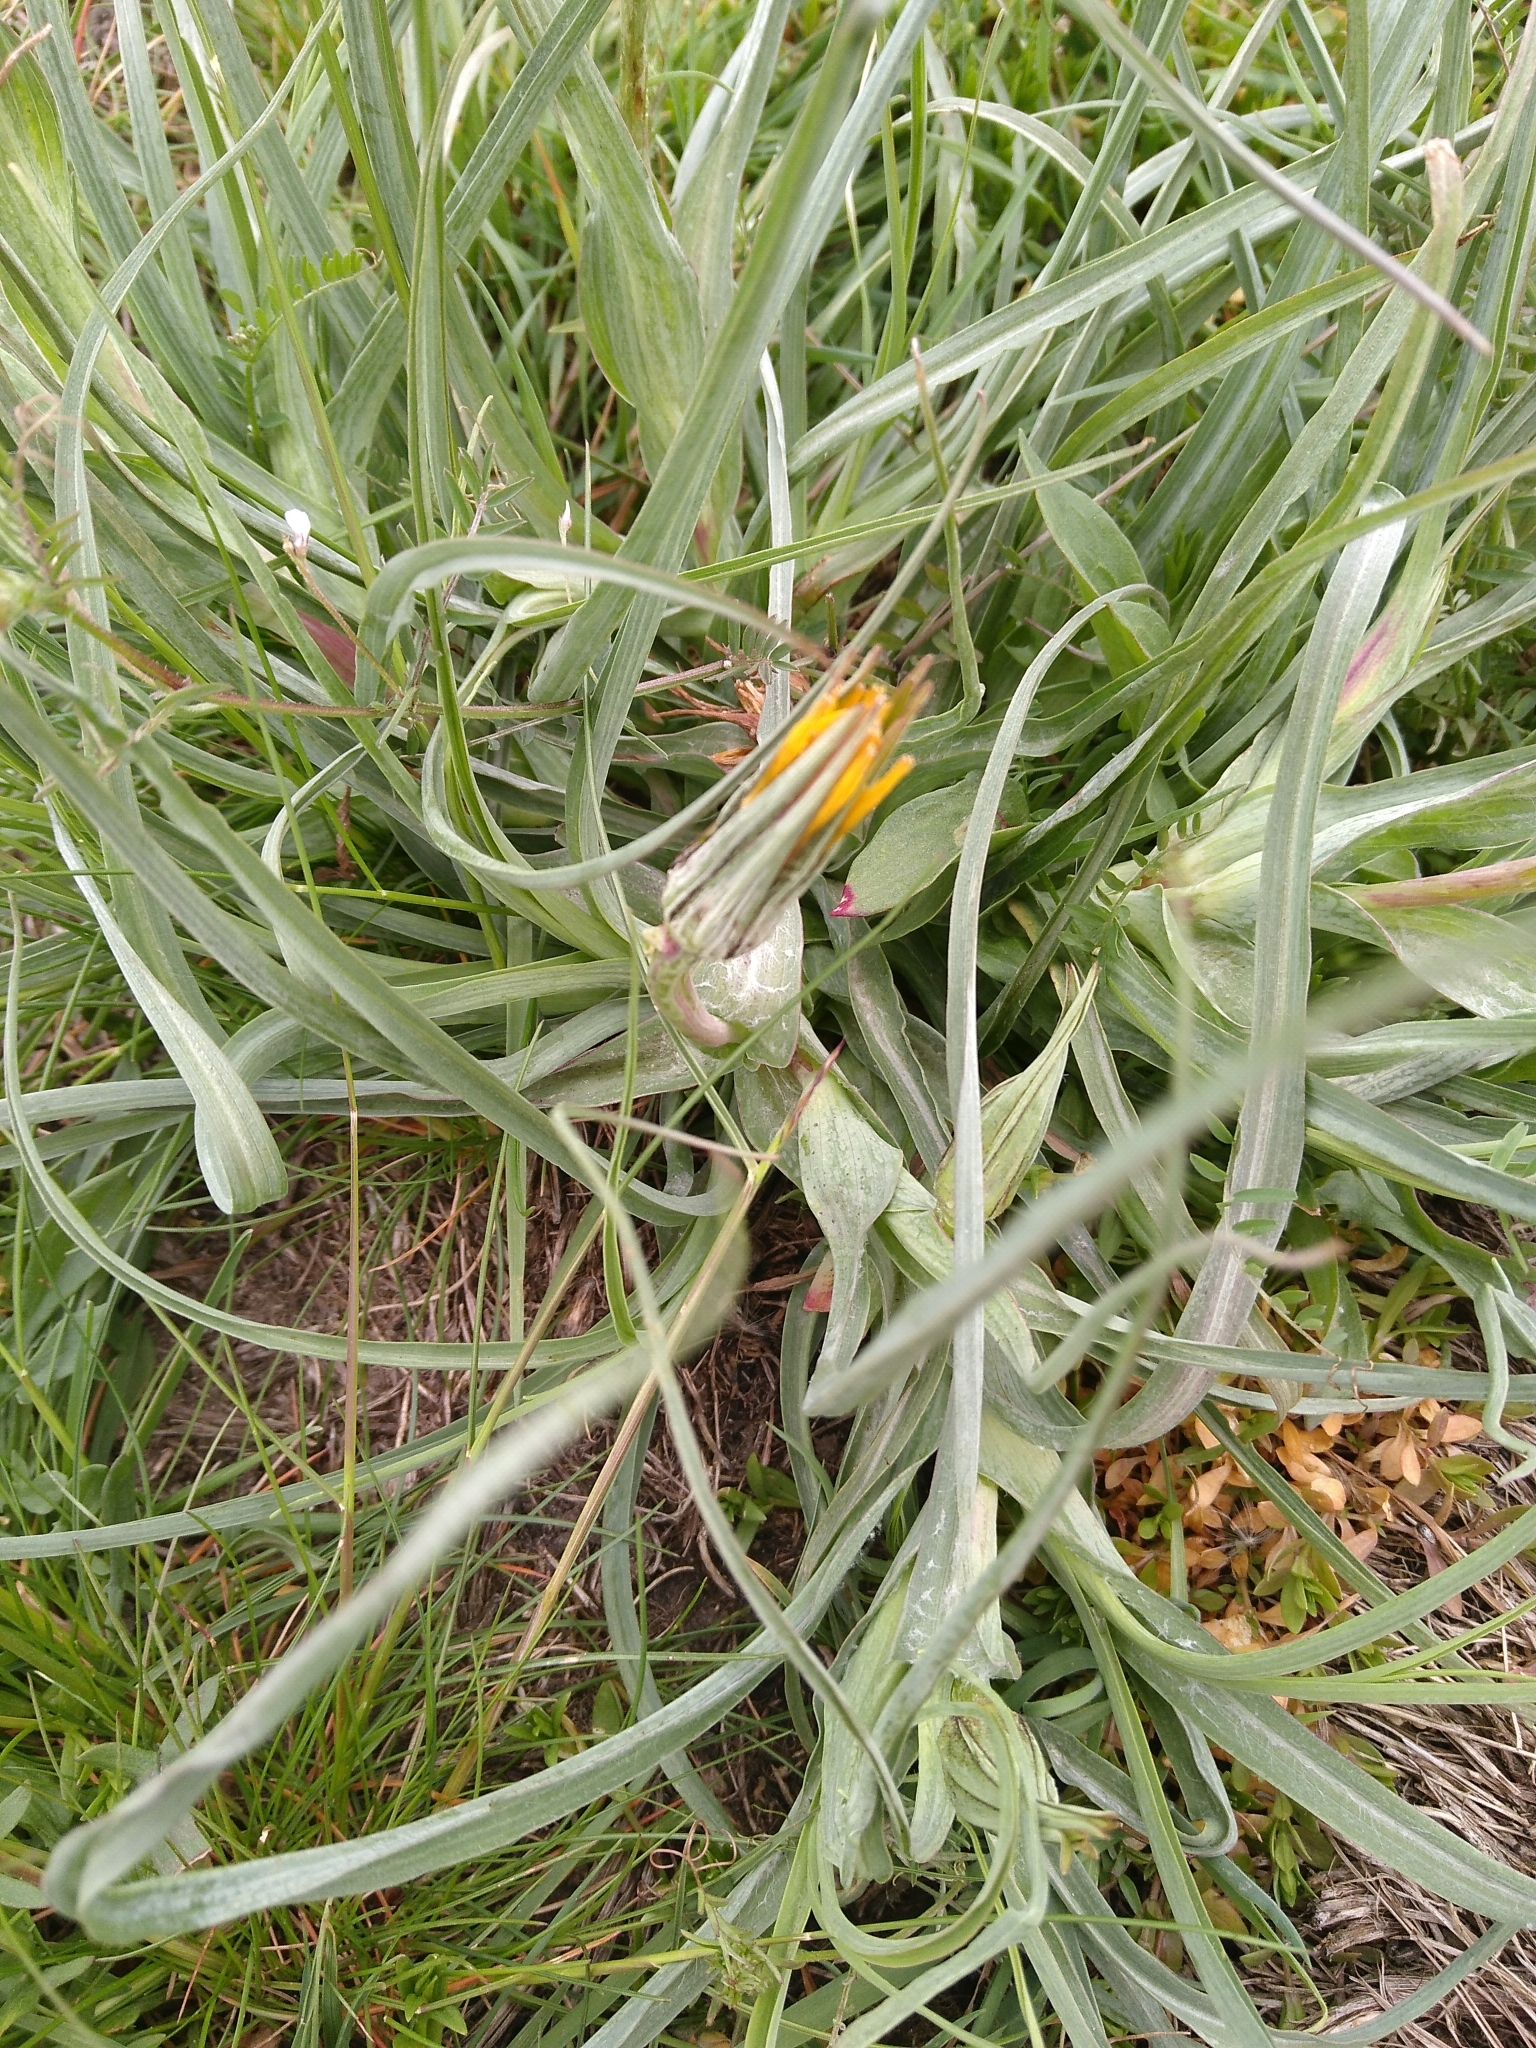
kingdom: Plantae
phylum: Tracheophyta
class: Magnoliopsida
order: Asterales
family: Asteraceae
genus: Tragopogon
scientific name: Tragopogon pratensis
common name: Goat's-beard
